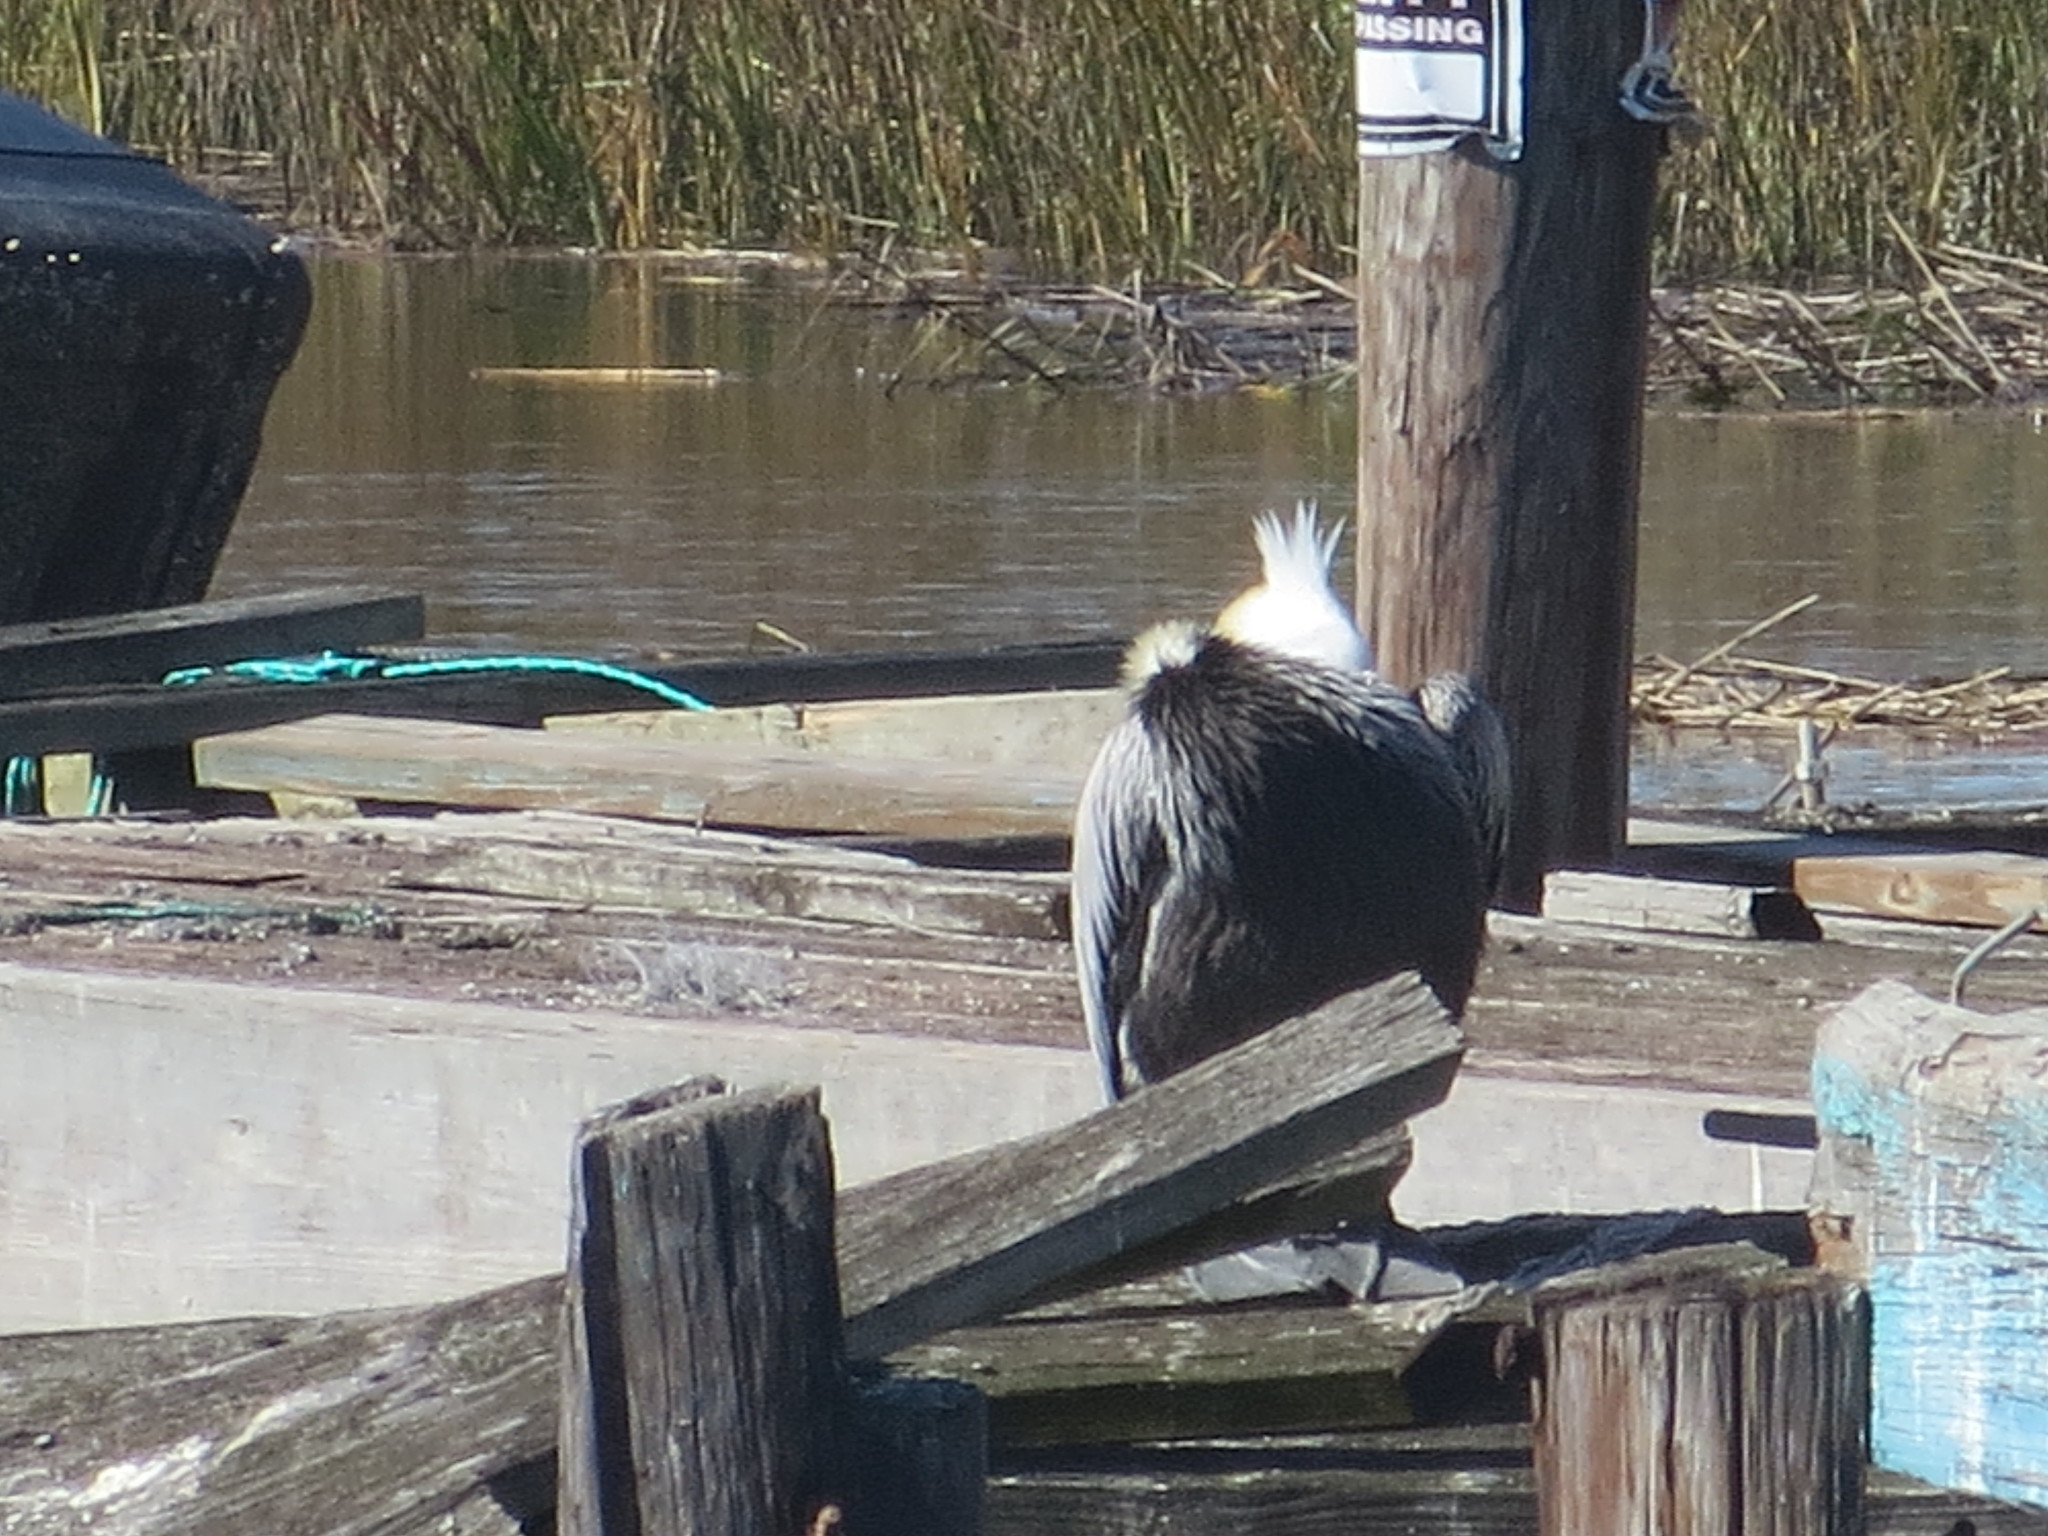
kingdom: Animalia
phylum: Chordata
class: Aves
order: Pelecaniformes
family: Pelecanidae
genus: Pelecanus
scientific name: Pelecanus occidentalis
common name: Brown pelican
